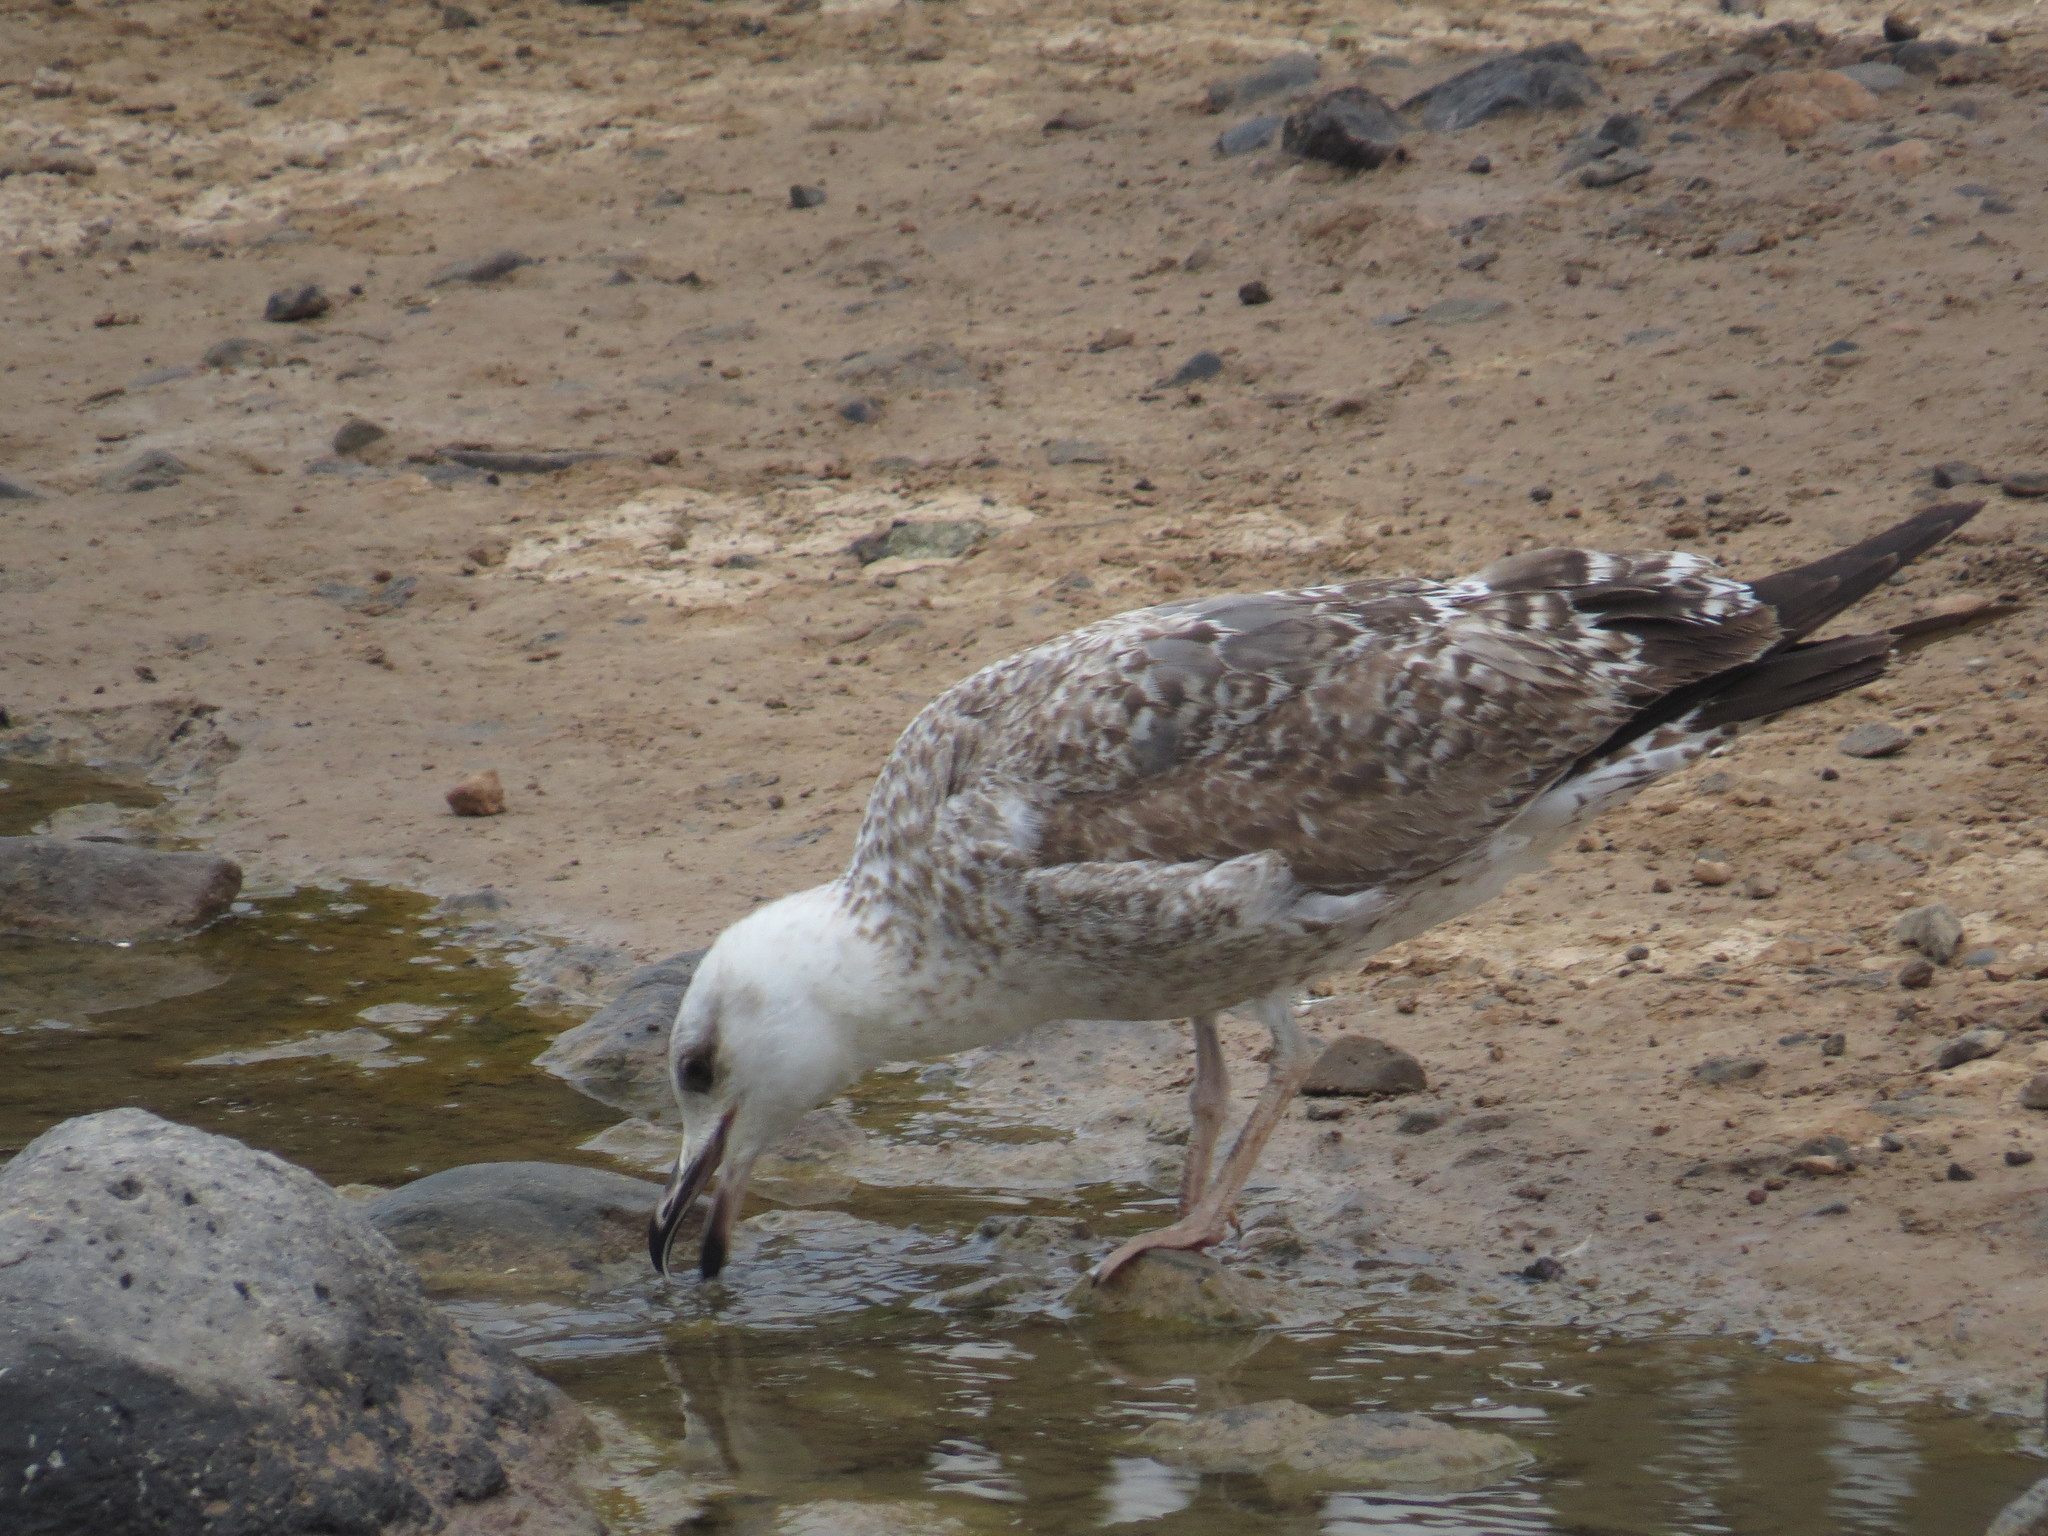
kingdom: Animalia
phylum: Chordata
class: Aves
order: Charadriiformes
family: Laridae
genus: Larus
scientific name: Larus michahellis
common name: Yellow-legged gull
